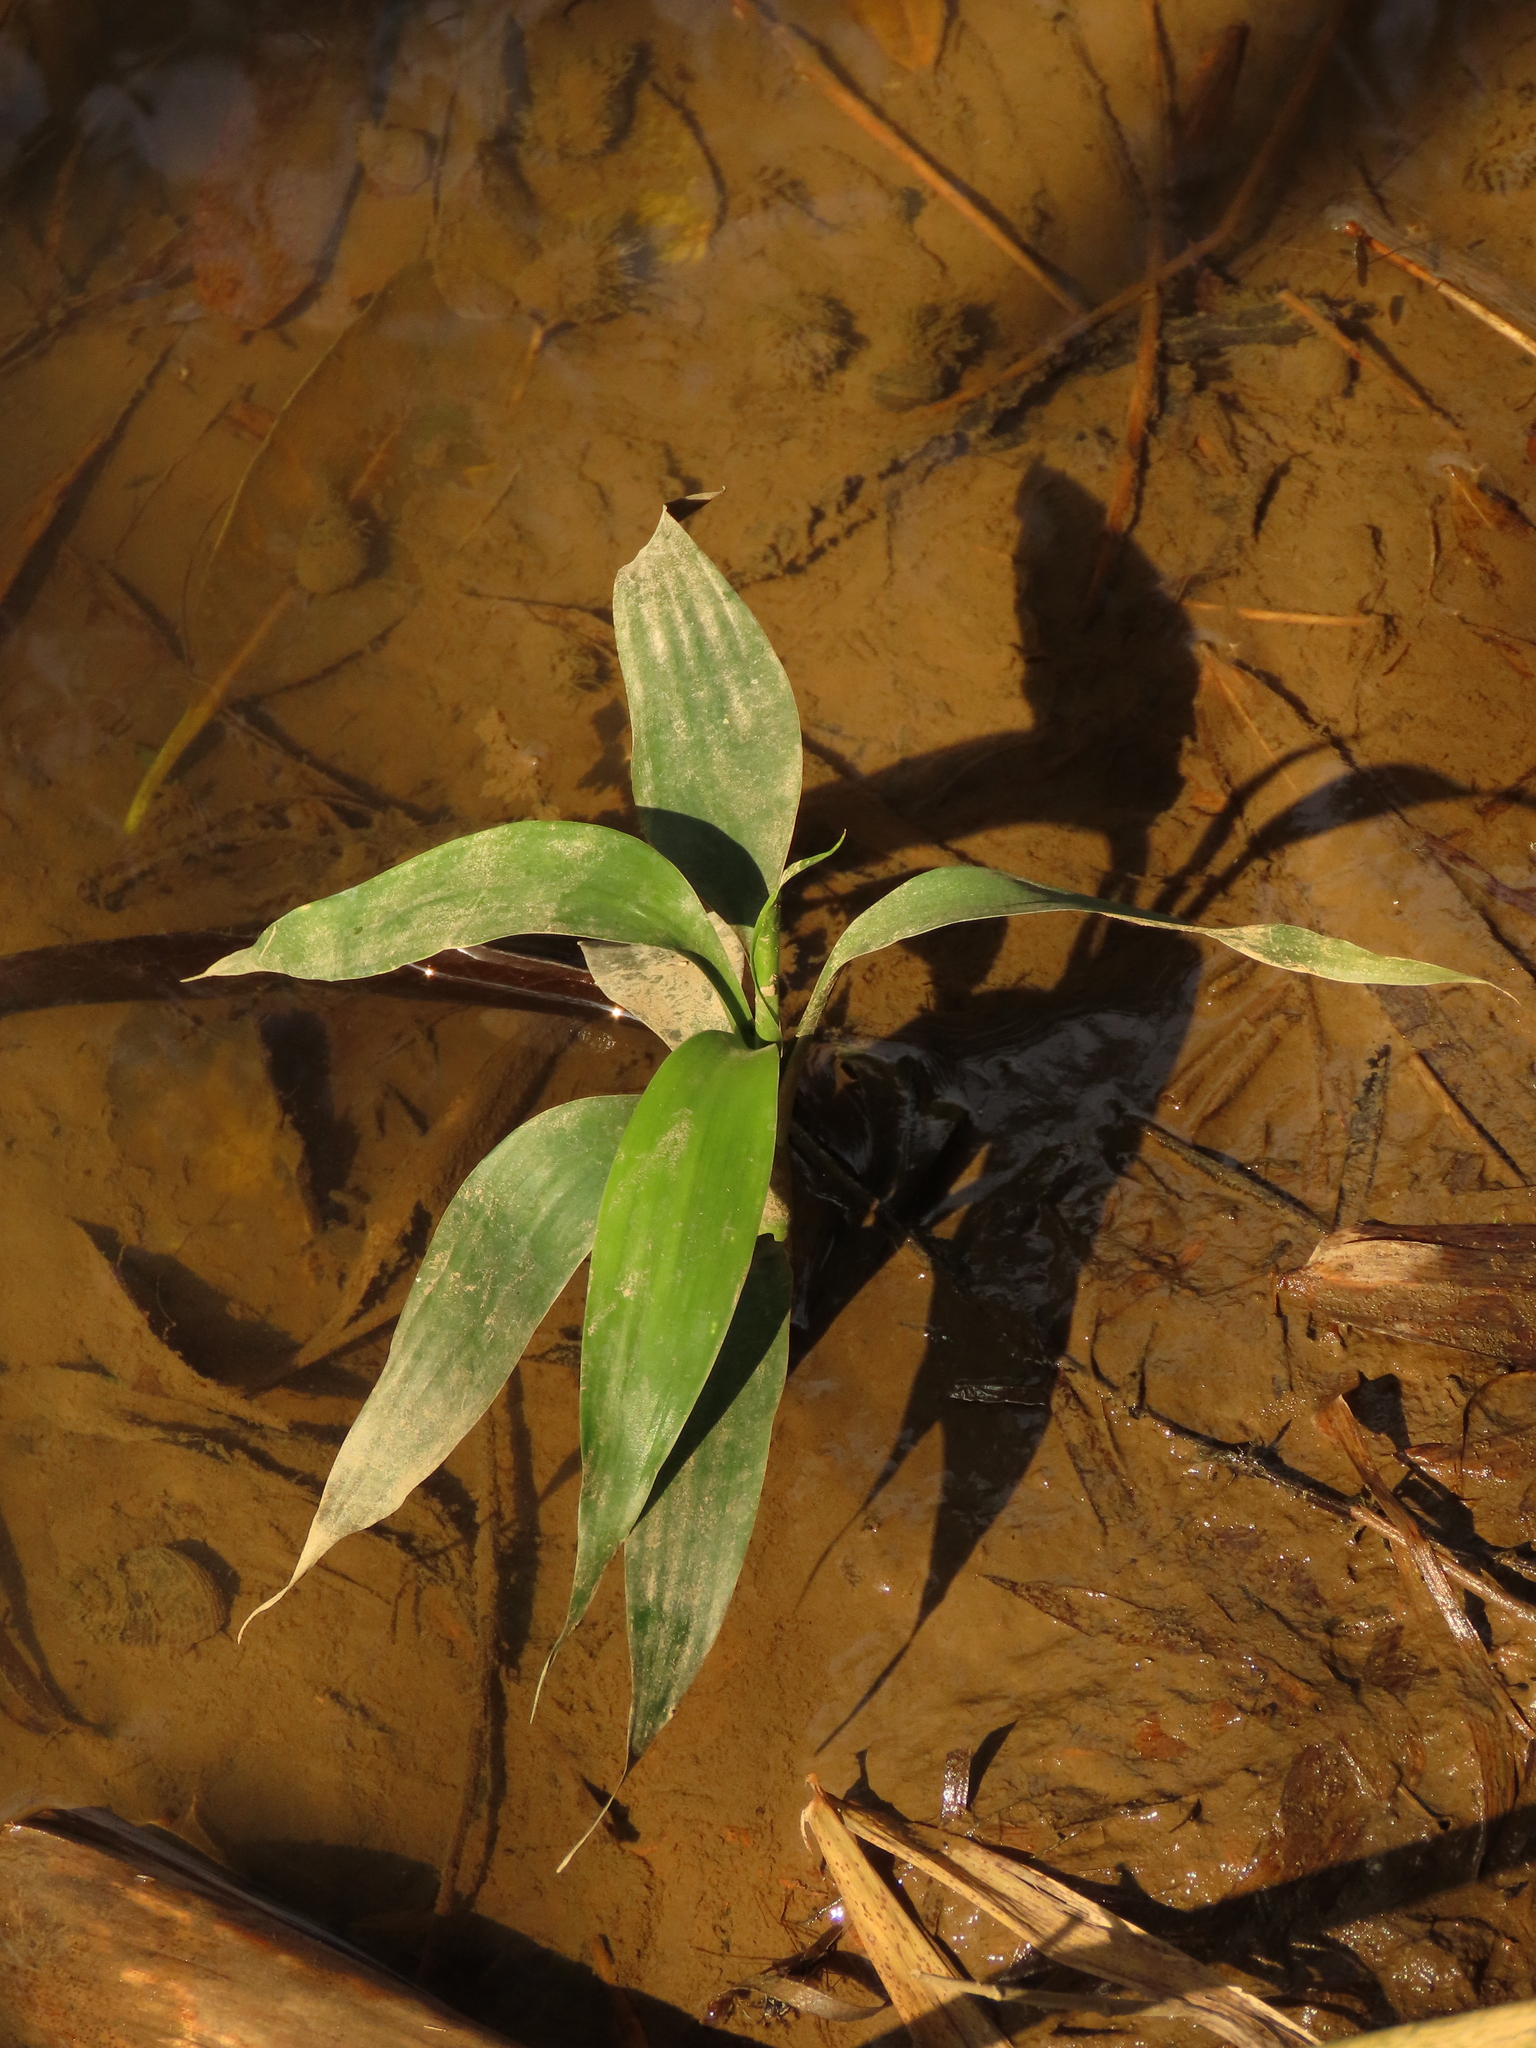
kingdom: Plantae
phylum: Tracheophyta
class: Liliopsida
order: Asparagales
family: Asparagaceae
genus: Dracaena
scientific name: Dracaena sanderiana
